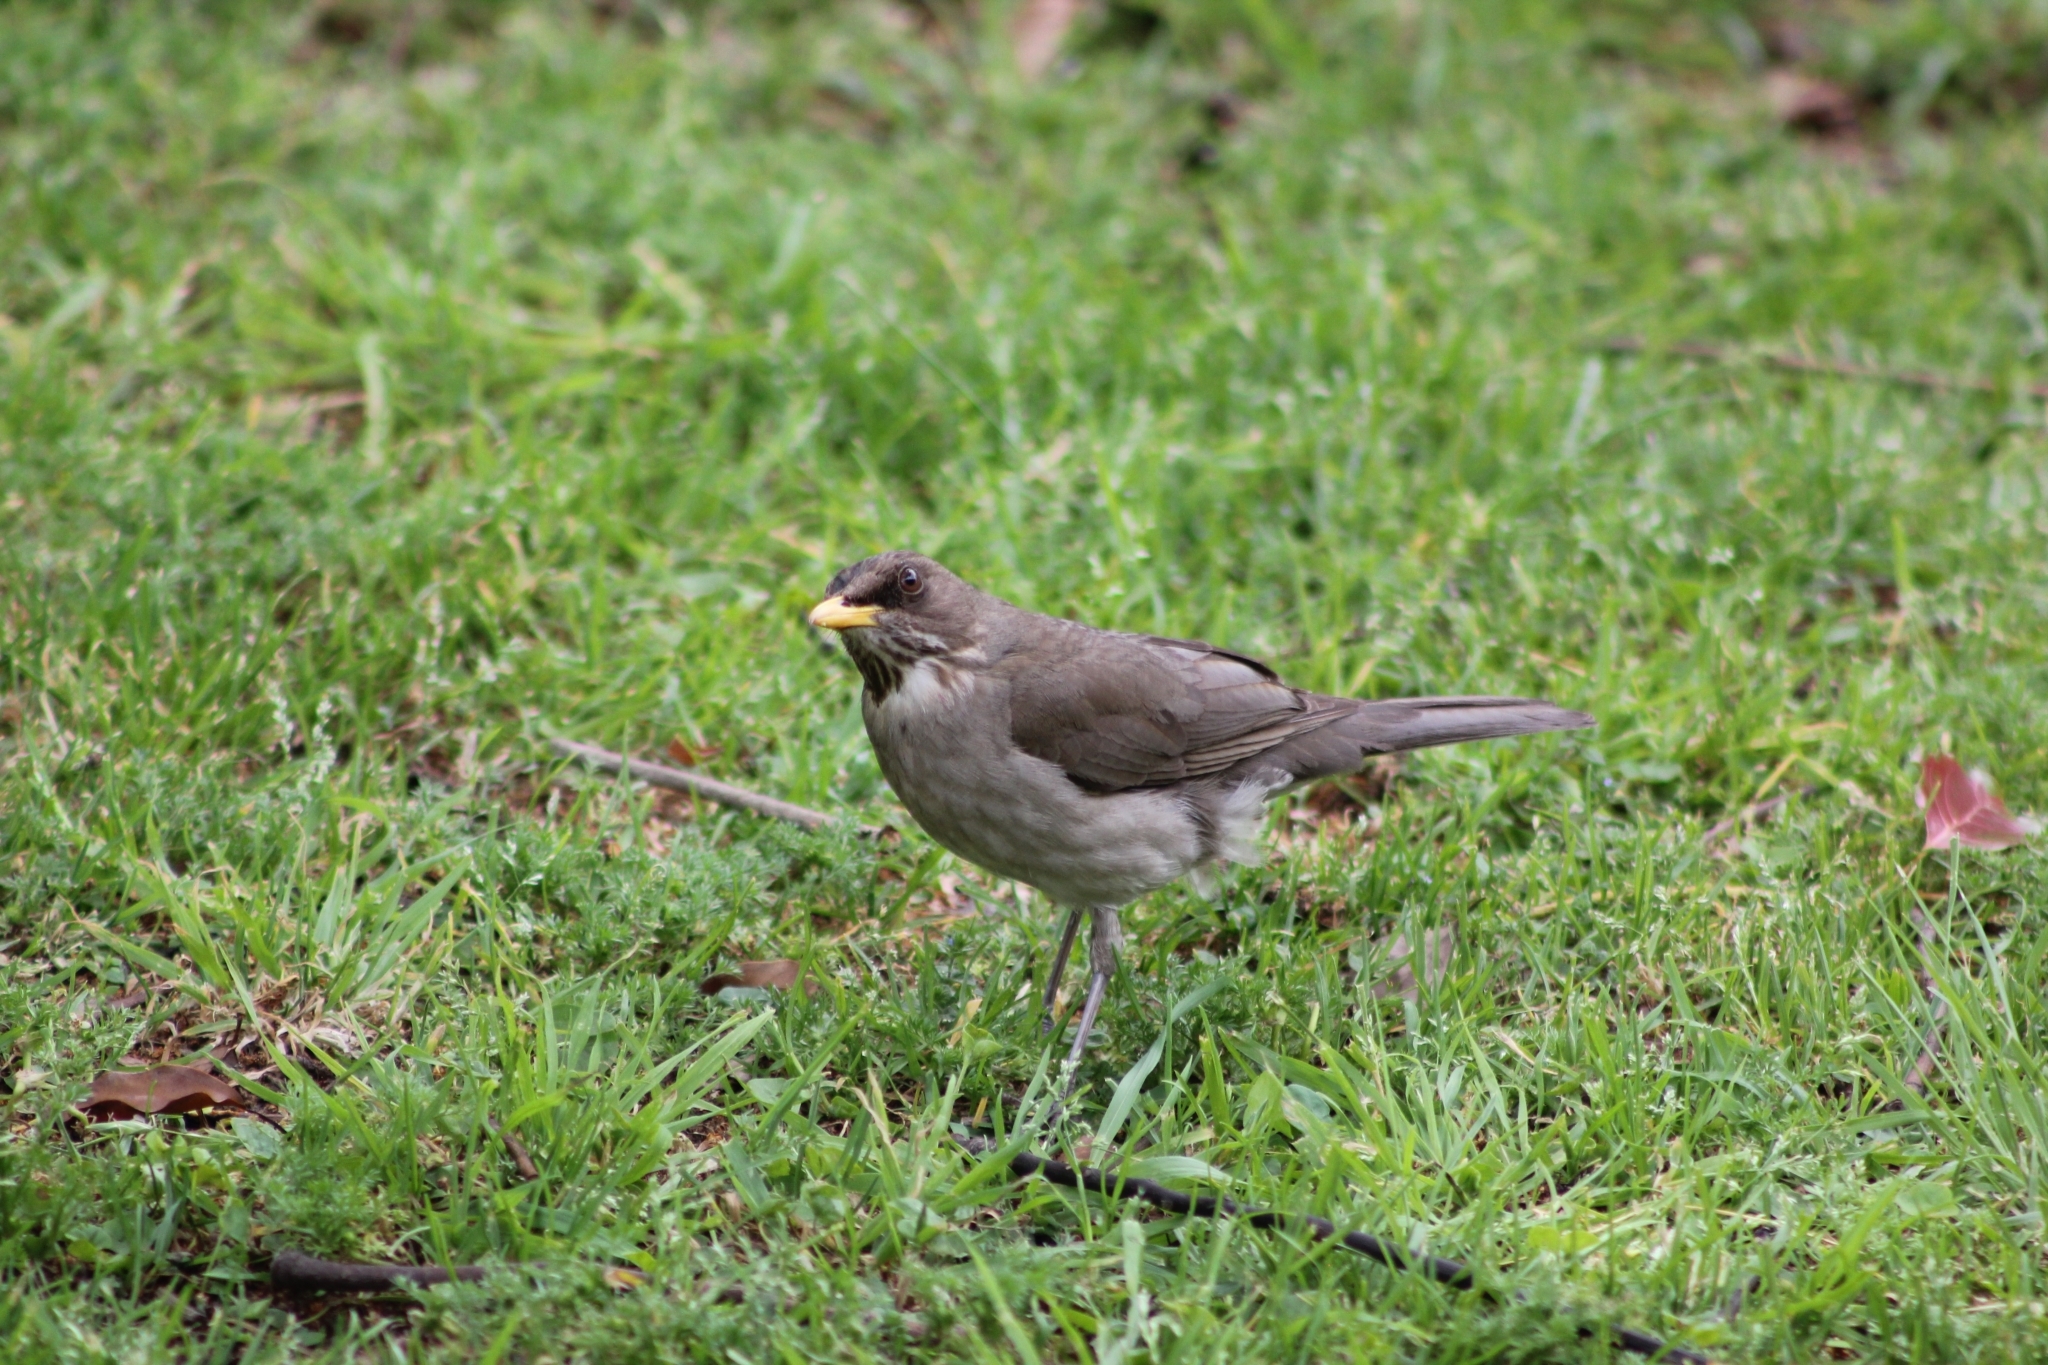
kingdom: Animalia
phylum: Chordata
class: Aves
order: Passeriformes
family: Turdidae
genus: Turdus
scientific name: Turdus amaurochalinus
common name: Creamy-bellied thrush
